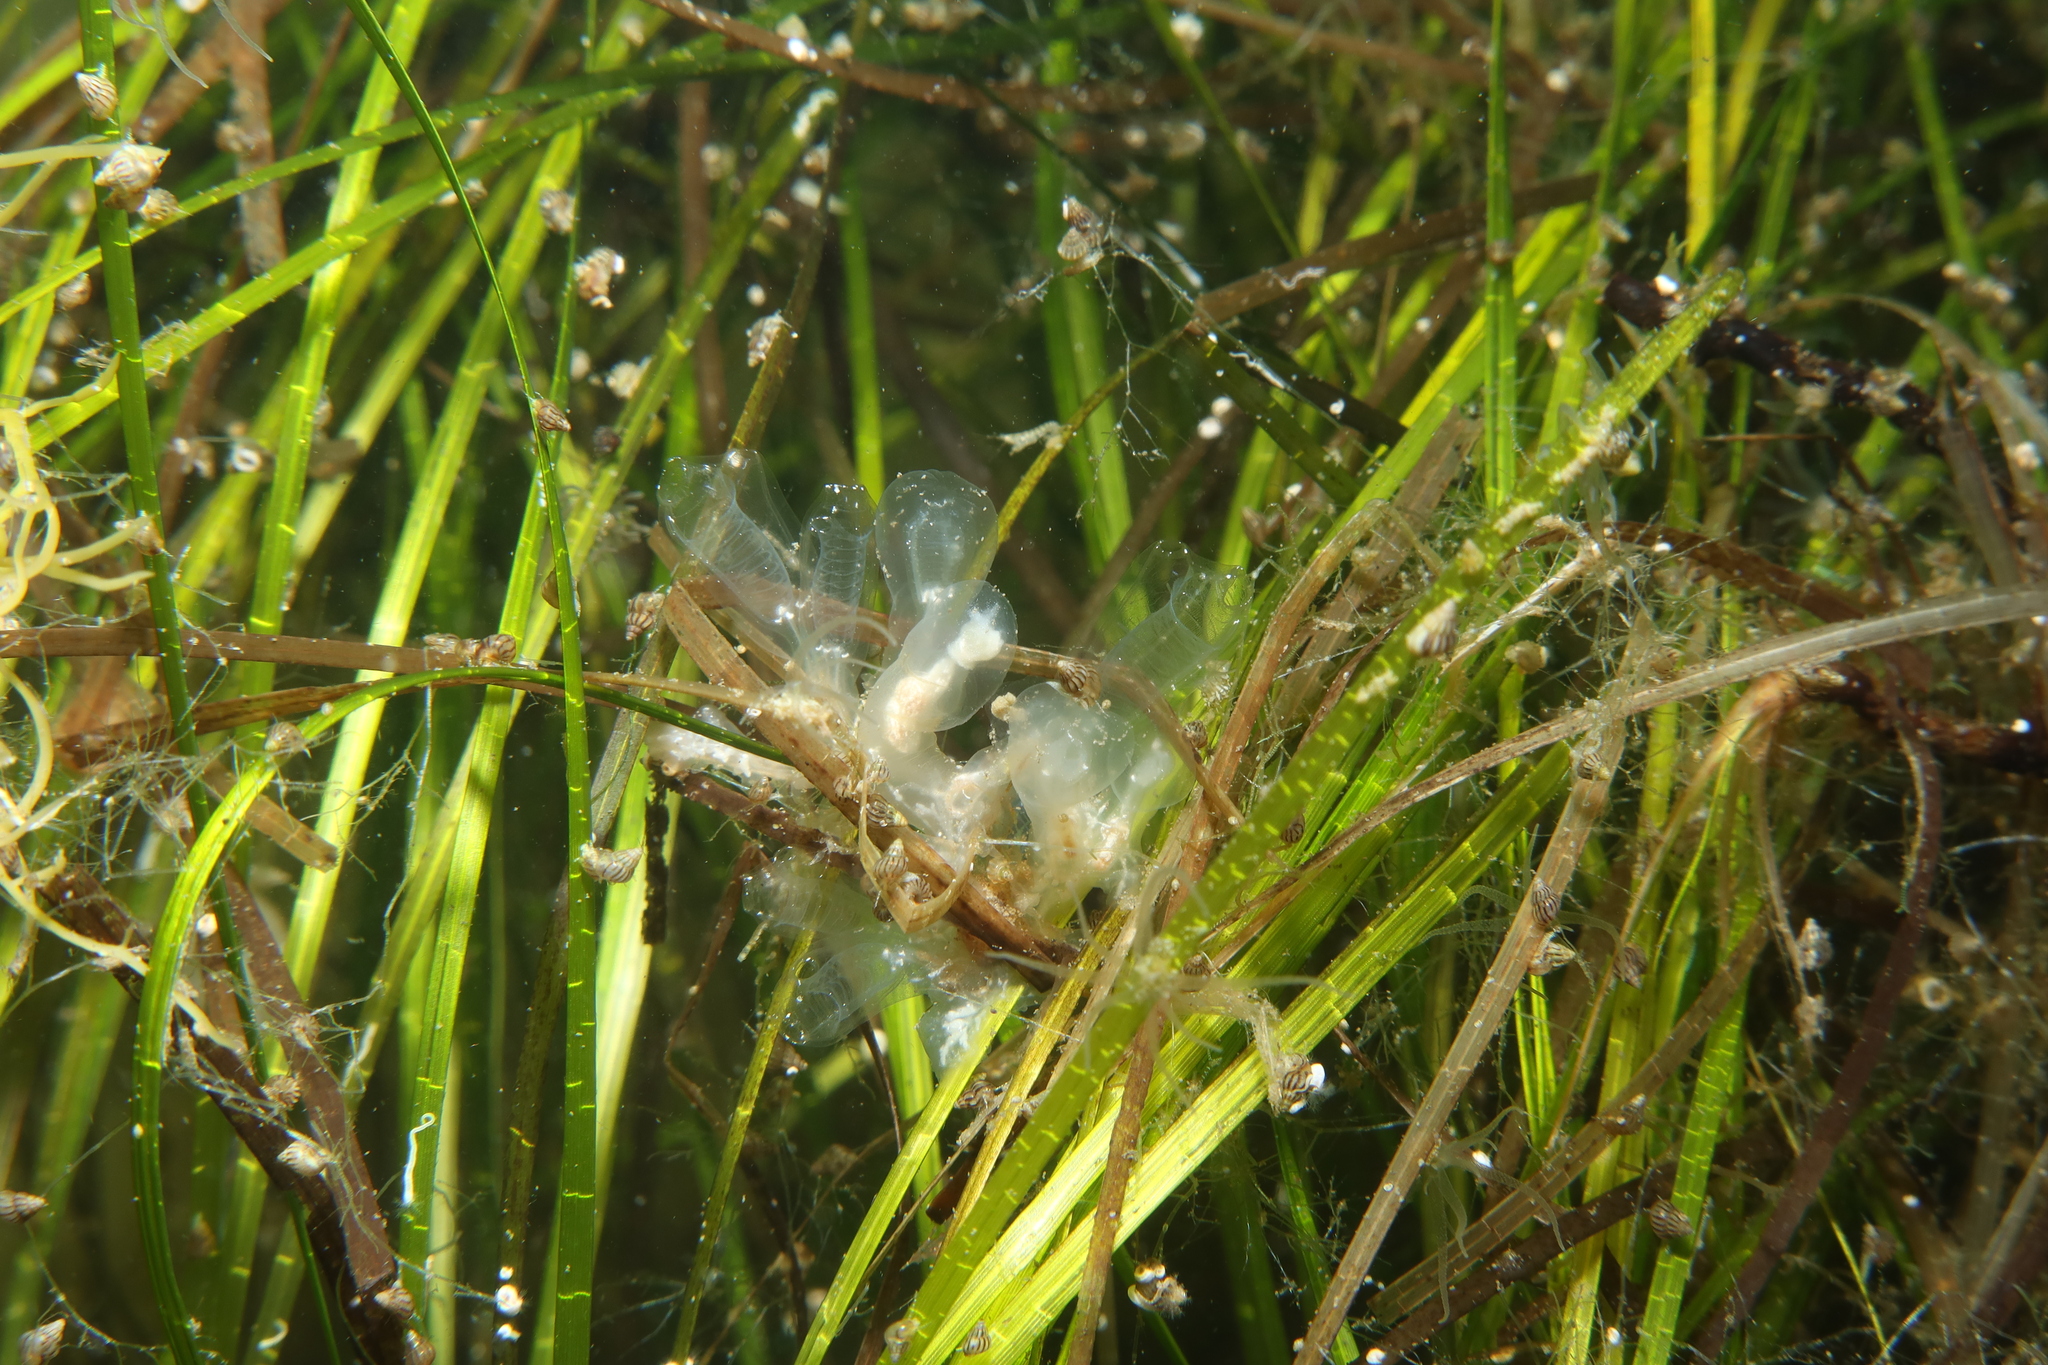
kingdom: Animalia
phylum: Chordata
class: Ascidiacea
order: Aplousobranchia
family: Clavelinidae
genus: Clavelina
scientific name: Clavelina oblonga
